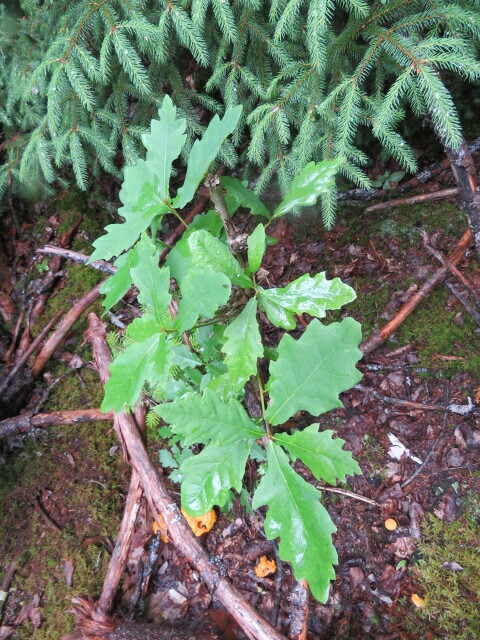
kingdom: Plantae
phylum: Tracheophyta
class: Magnoliopsida
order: Fagales
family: Fagaceae
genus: Quercus
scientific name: Quercus robur
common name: Pedunculate oak
